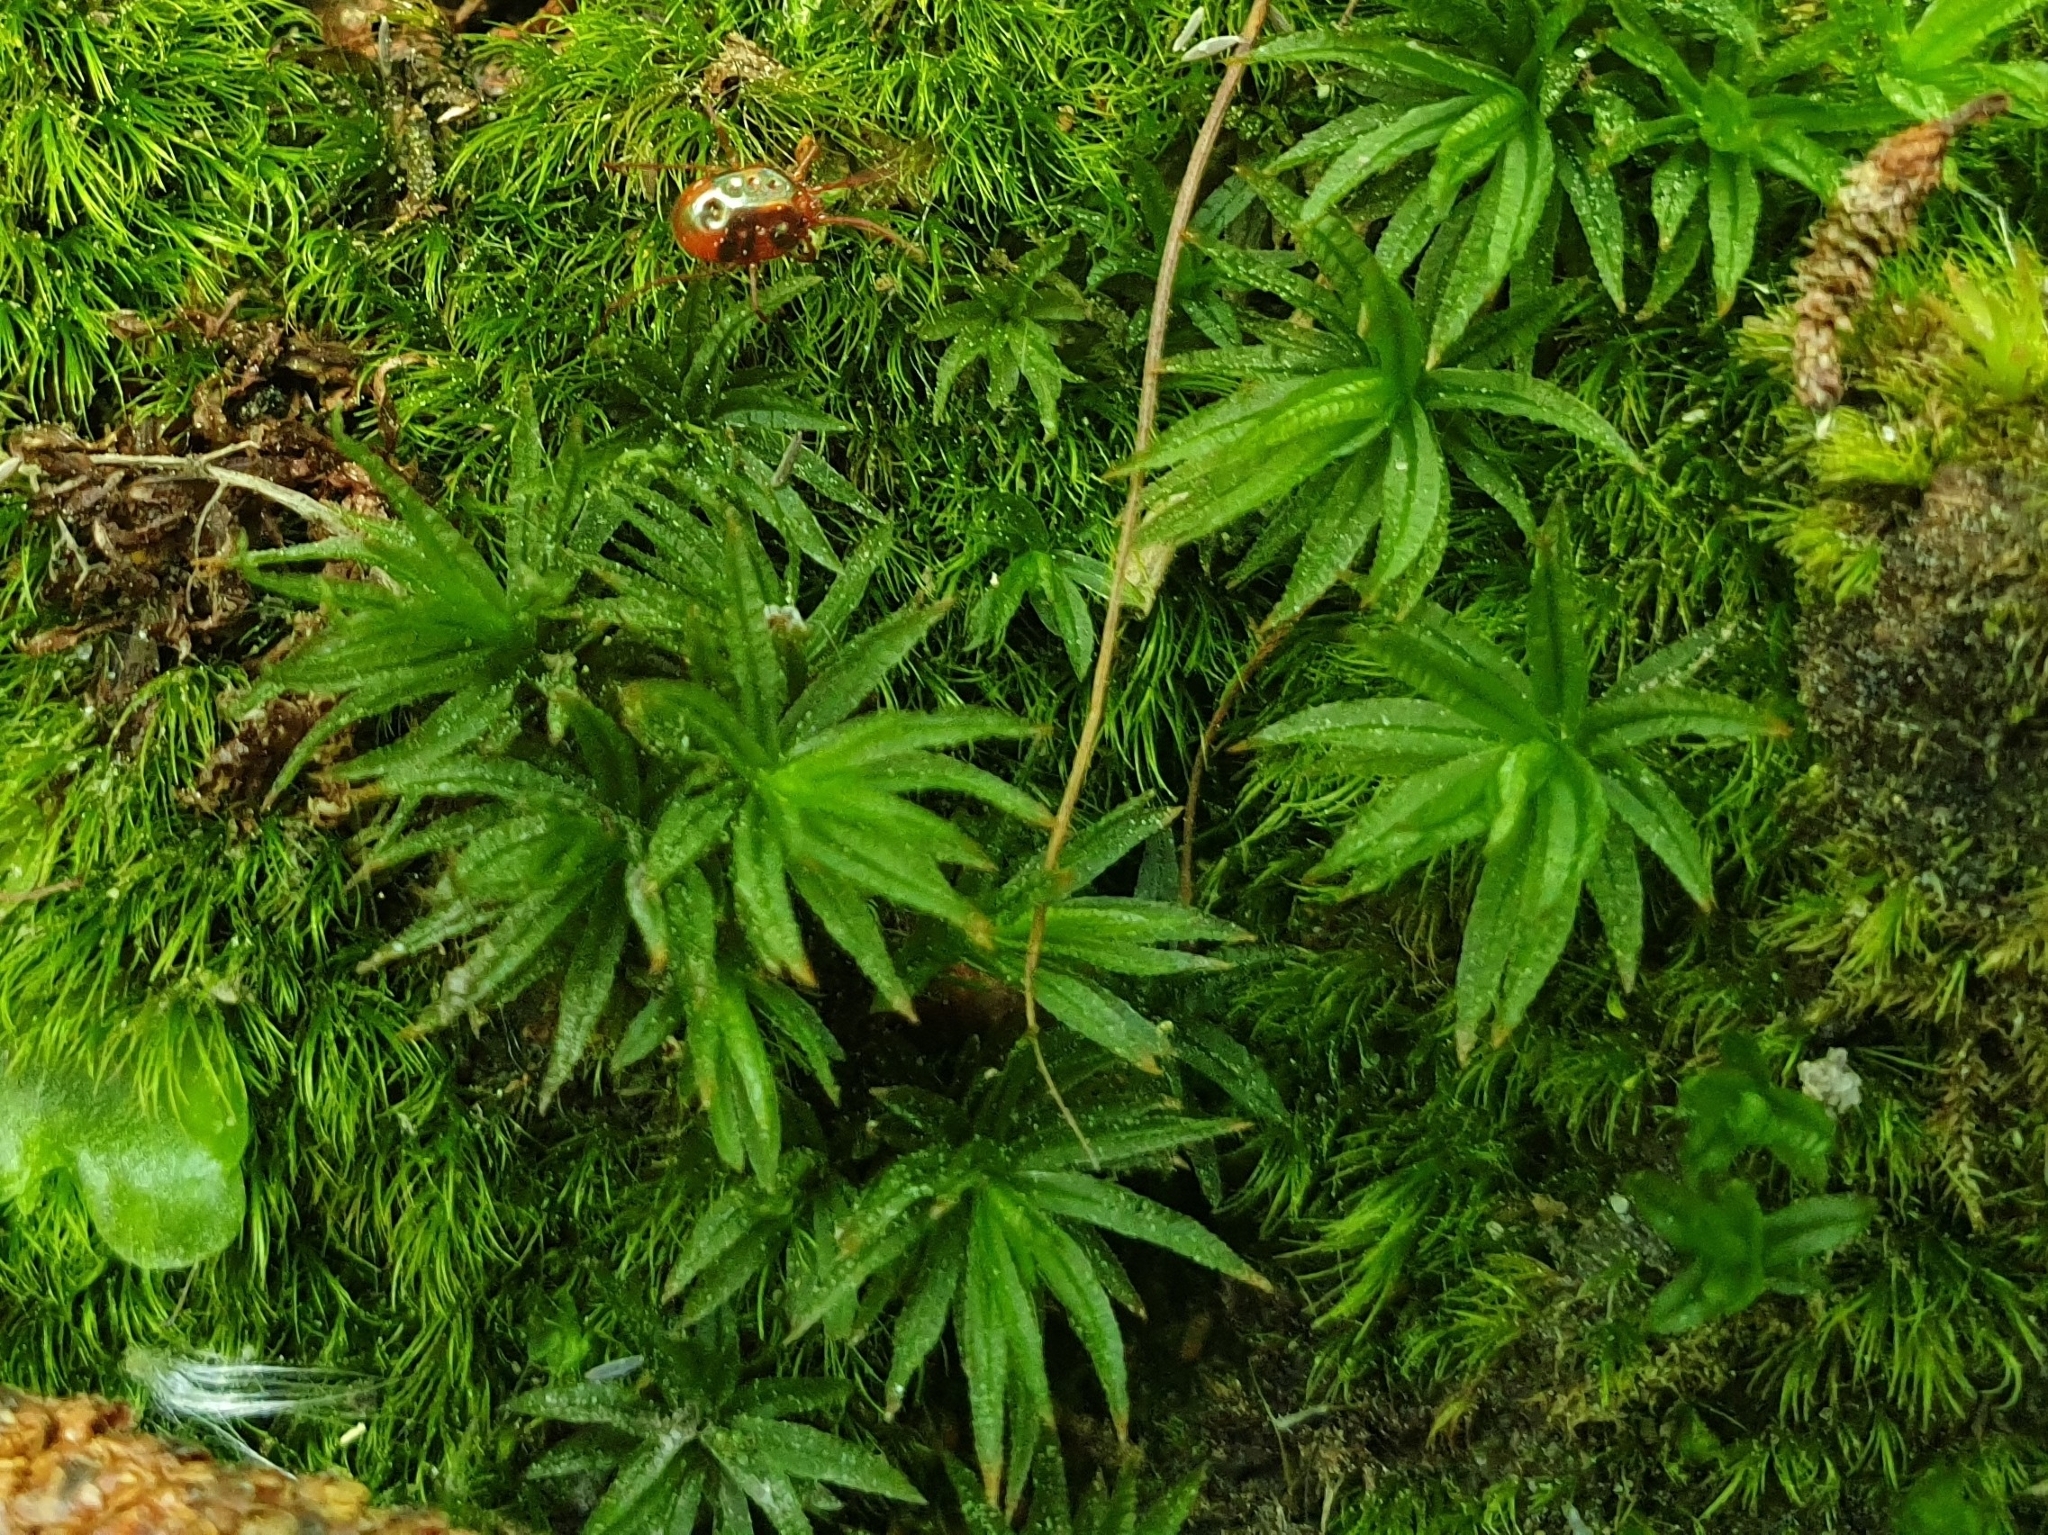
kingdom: Plantae
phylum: Bryophyta
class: Polytrichopsida
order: Polytrichales
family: Polytrichaceae
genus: Atrichum
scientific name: Atrichum undulatum
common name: Common smoothcap
